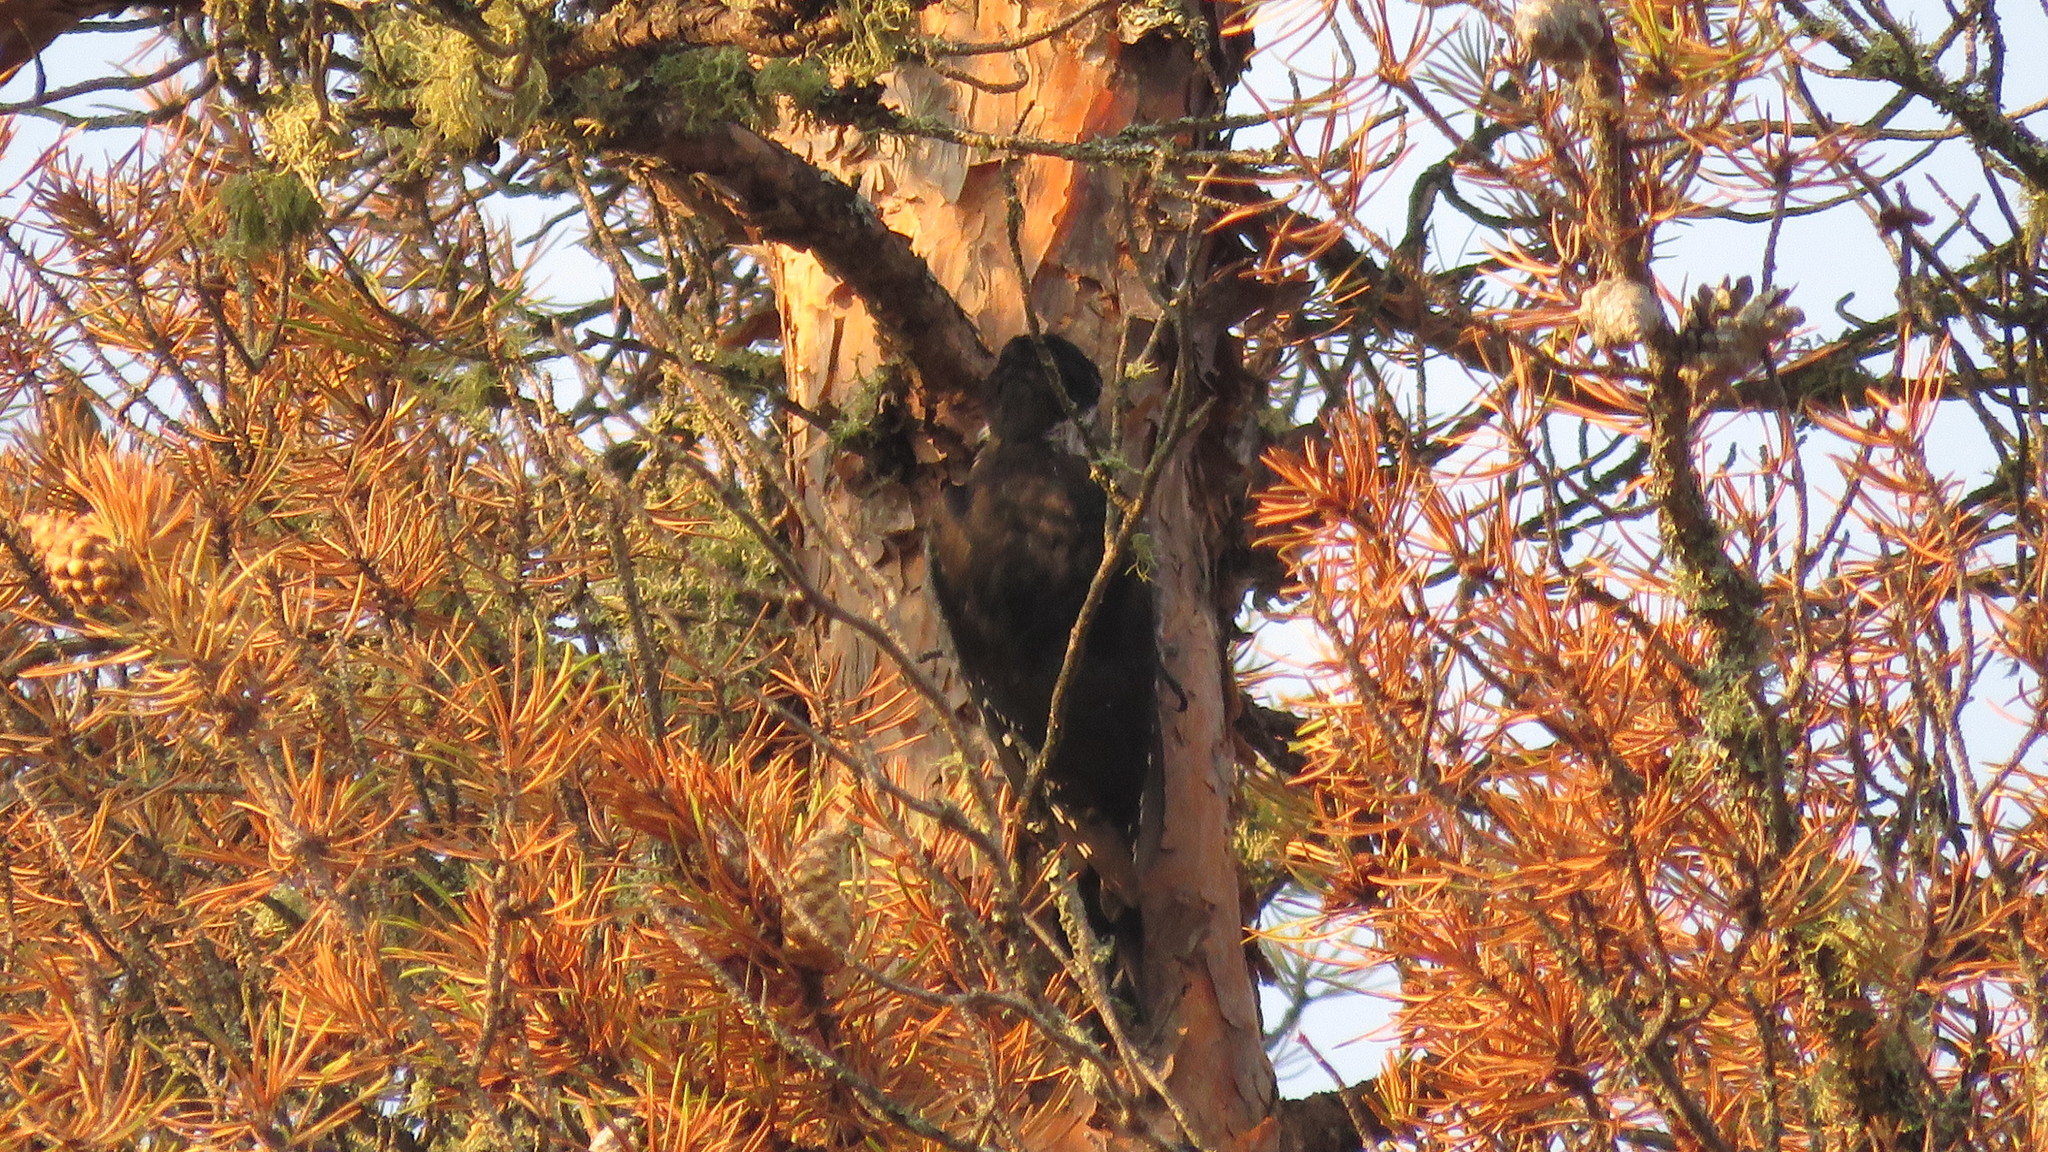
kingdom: Animalia
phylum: Chordata
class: Aves
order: Piciformes
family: Picidae
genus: Picoides
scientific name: Picoides arcticus
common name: Black-backed woodpecker
